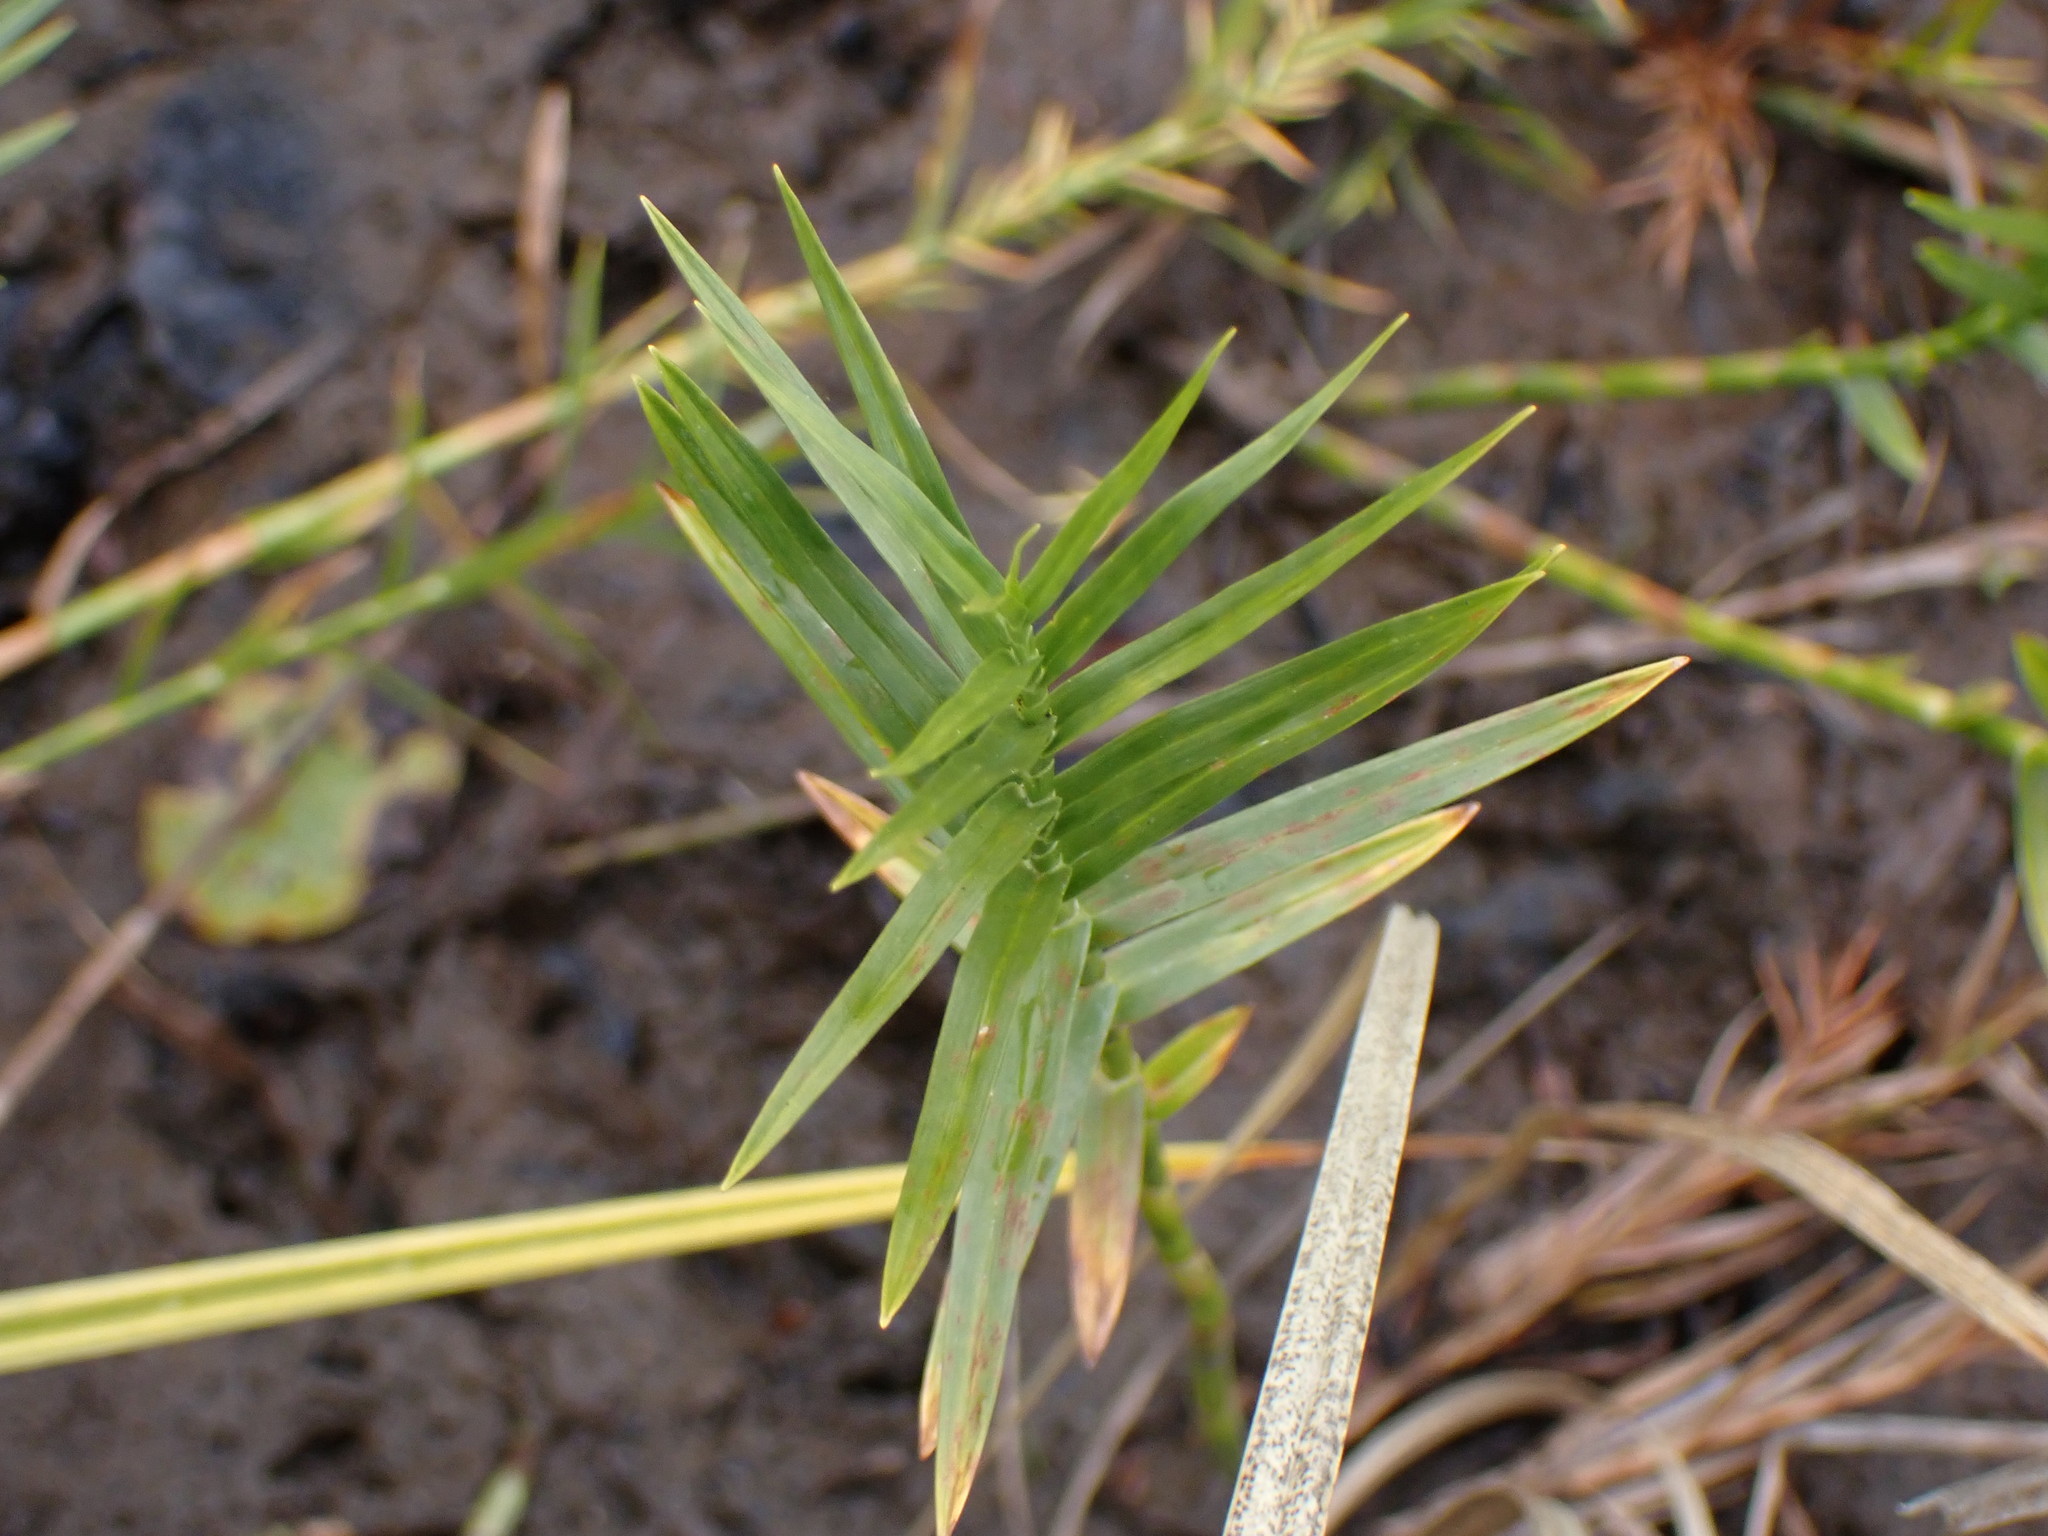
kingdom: Plantae
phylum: Tracheophyta
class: Liliopsida
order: Poales
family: Cyperaceae
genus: Dulichium
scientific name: Dulichium arundinaceum
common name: Three-way sedge
